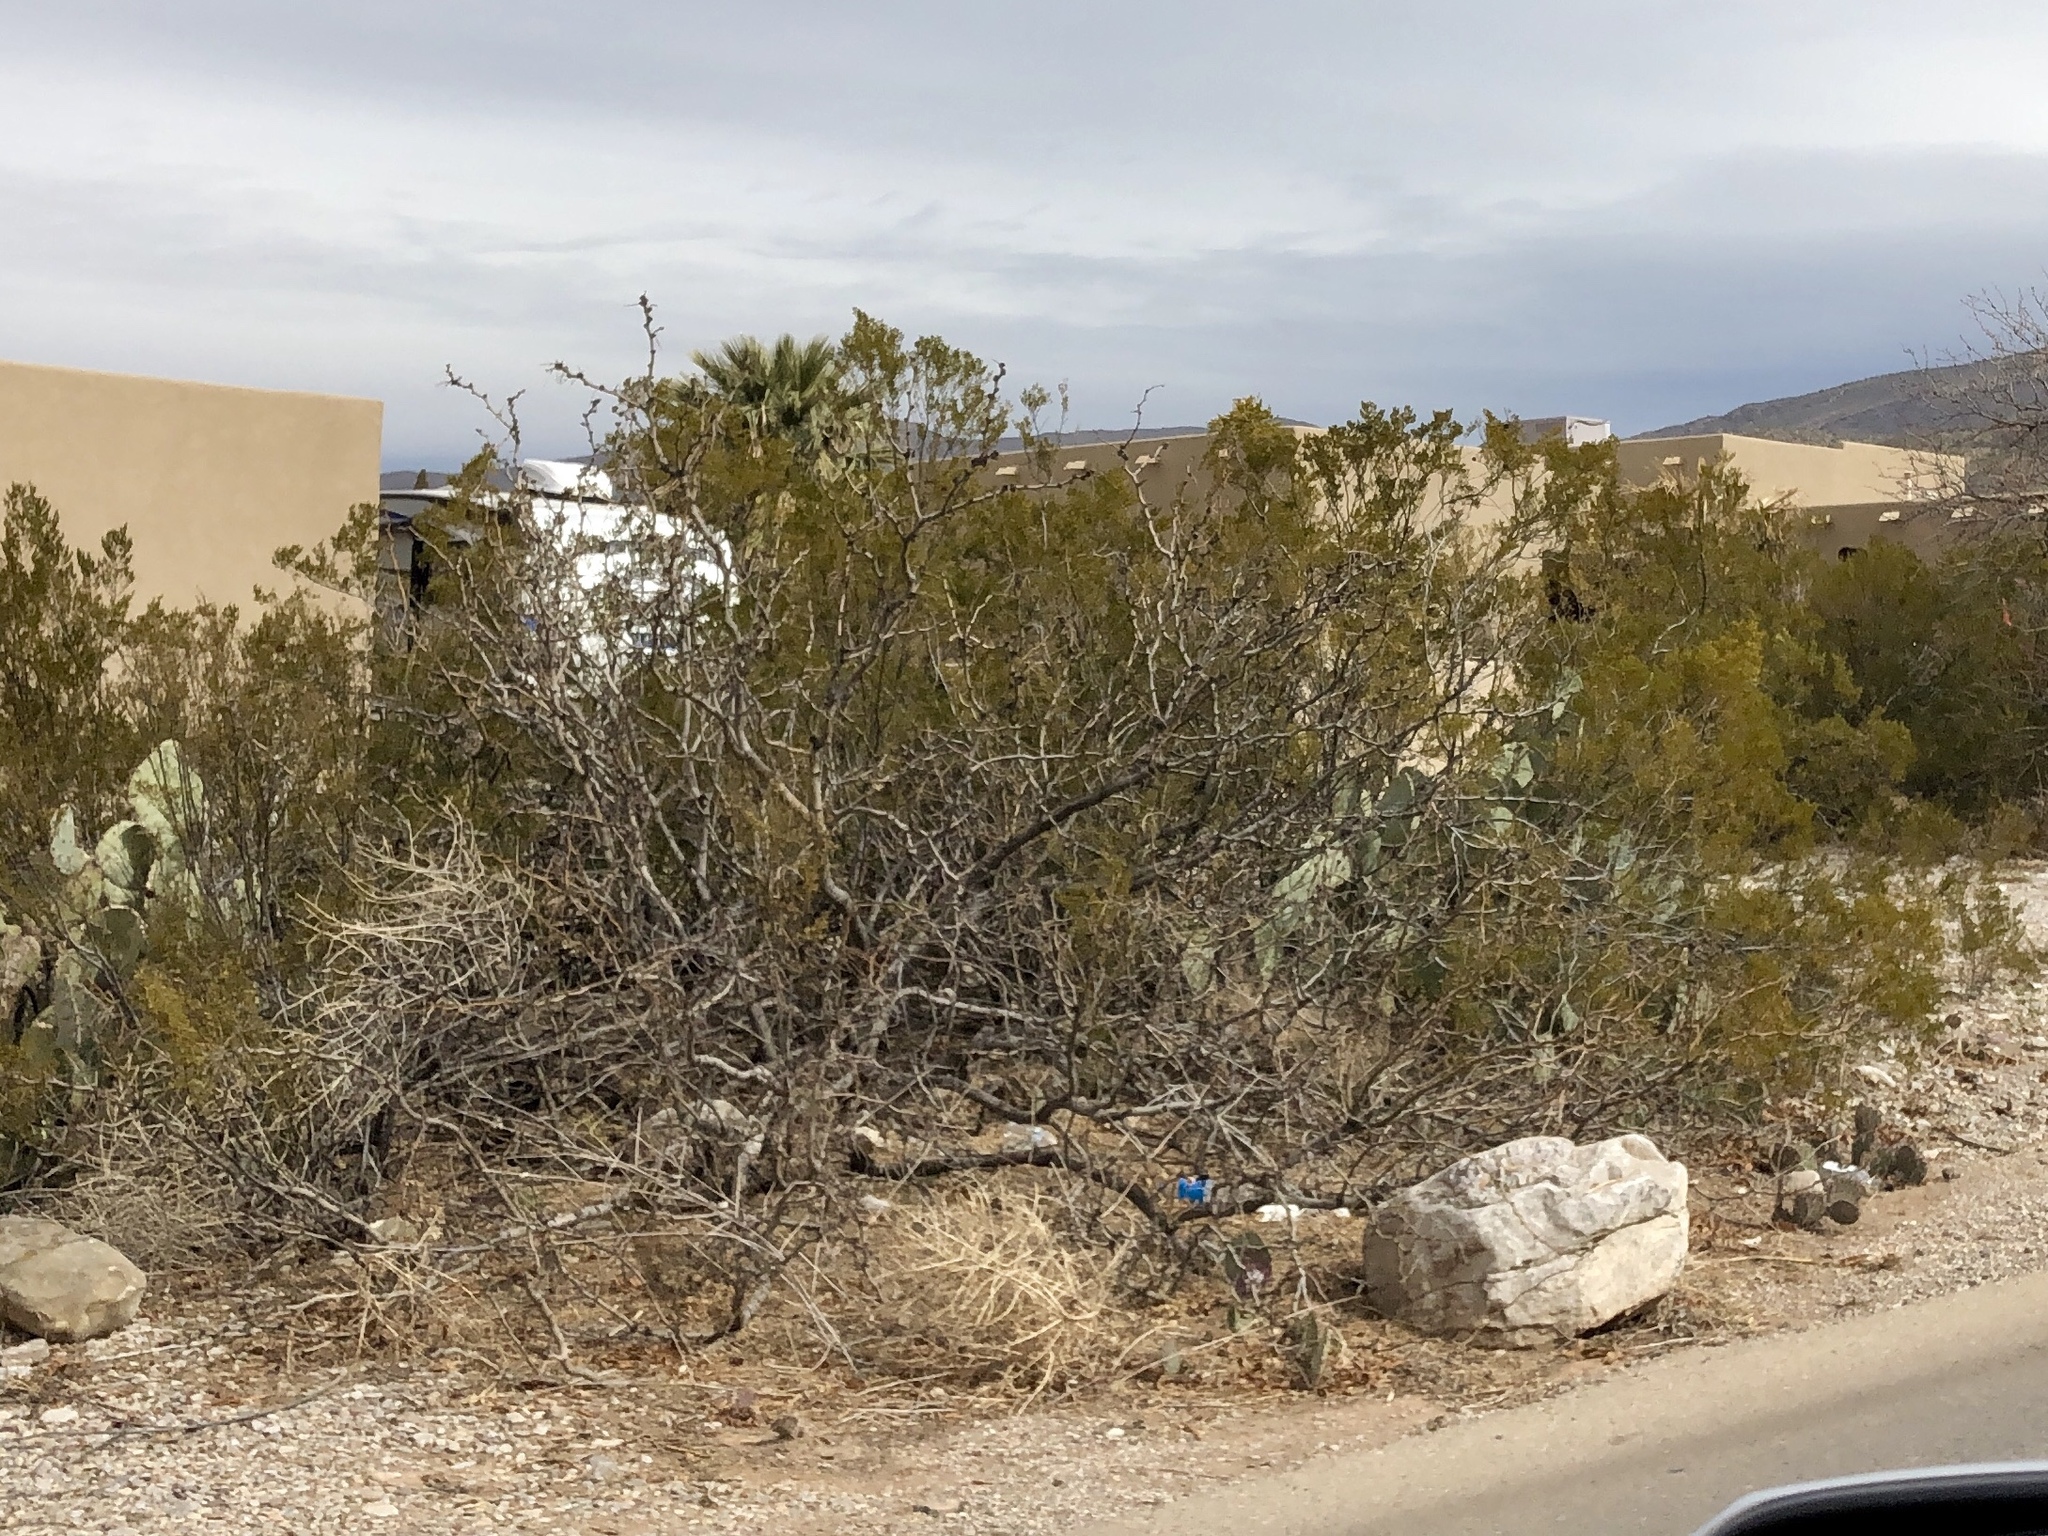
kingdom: Plantae
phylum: Tracheophyta
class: Magnoliopsida
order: Zygophyllales
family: Zygophyllaceae
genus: Larrea
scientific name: Larrea tridentata
